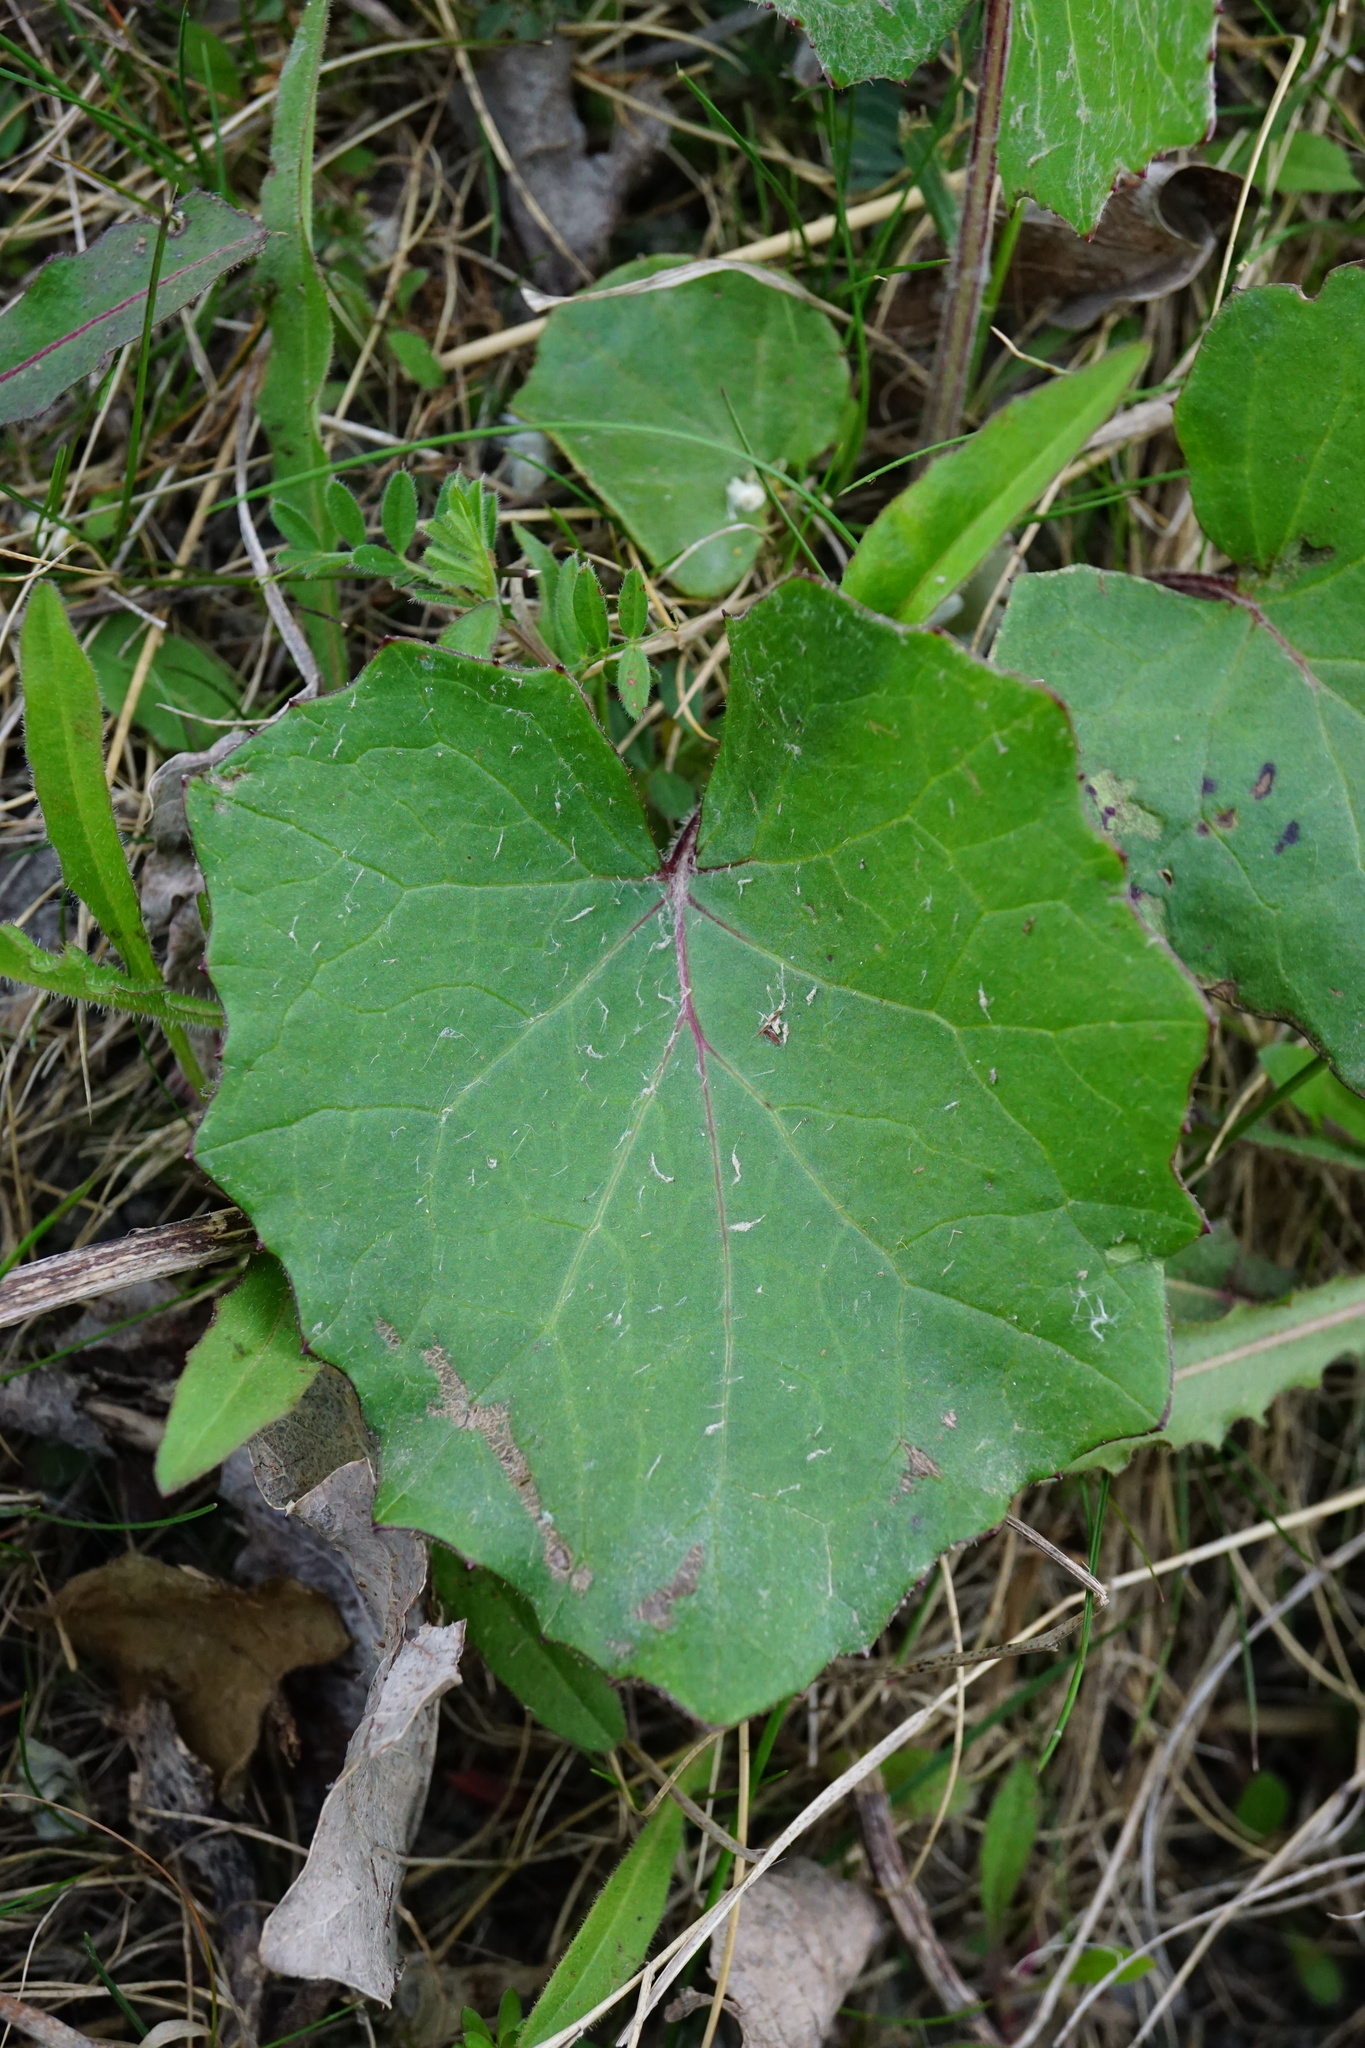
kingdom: Plantae
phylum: Tracheophyta
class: Magnoliopsida
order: Asterales
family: Asteraceae
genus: Tussilago
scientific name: Tussilago farfara
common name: Coltsfoot
